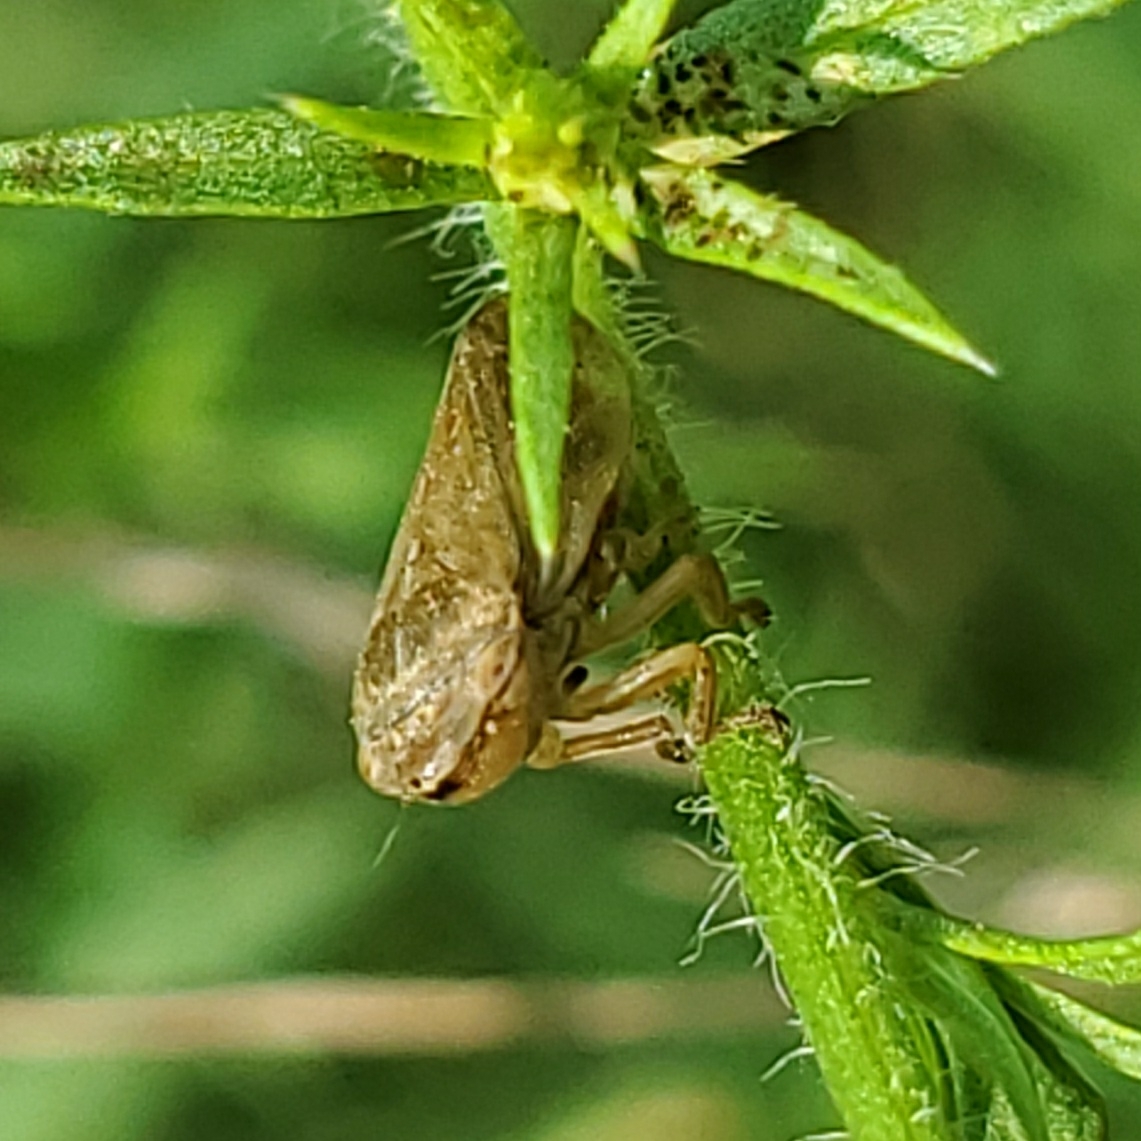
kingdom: Animalia
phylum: Arthropoda
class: Insecta
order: Hemiptera
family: Aphrophoridae
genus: Philaenus
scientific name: Philaenus spumarius
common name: Meadow spittlebug
